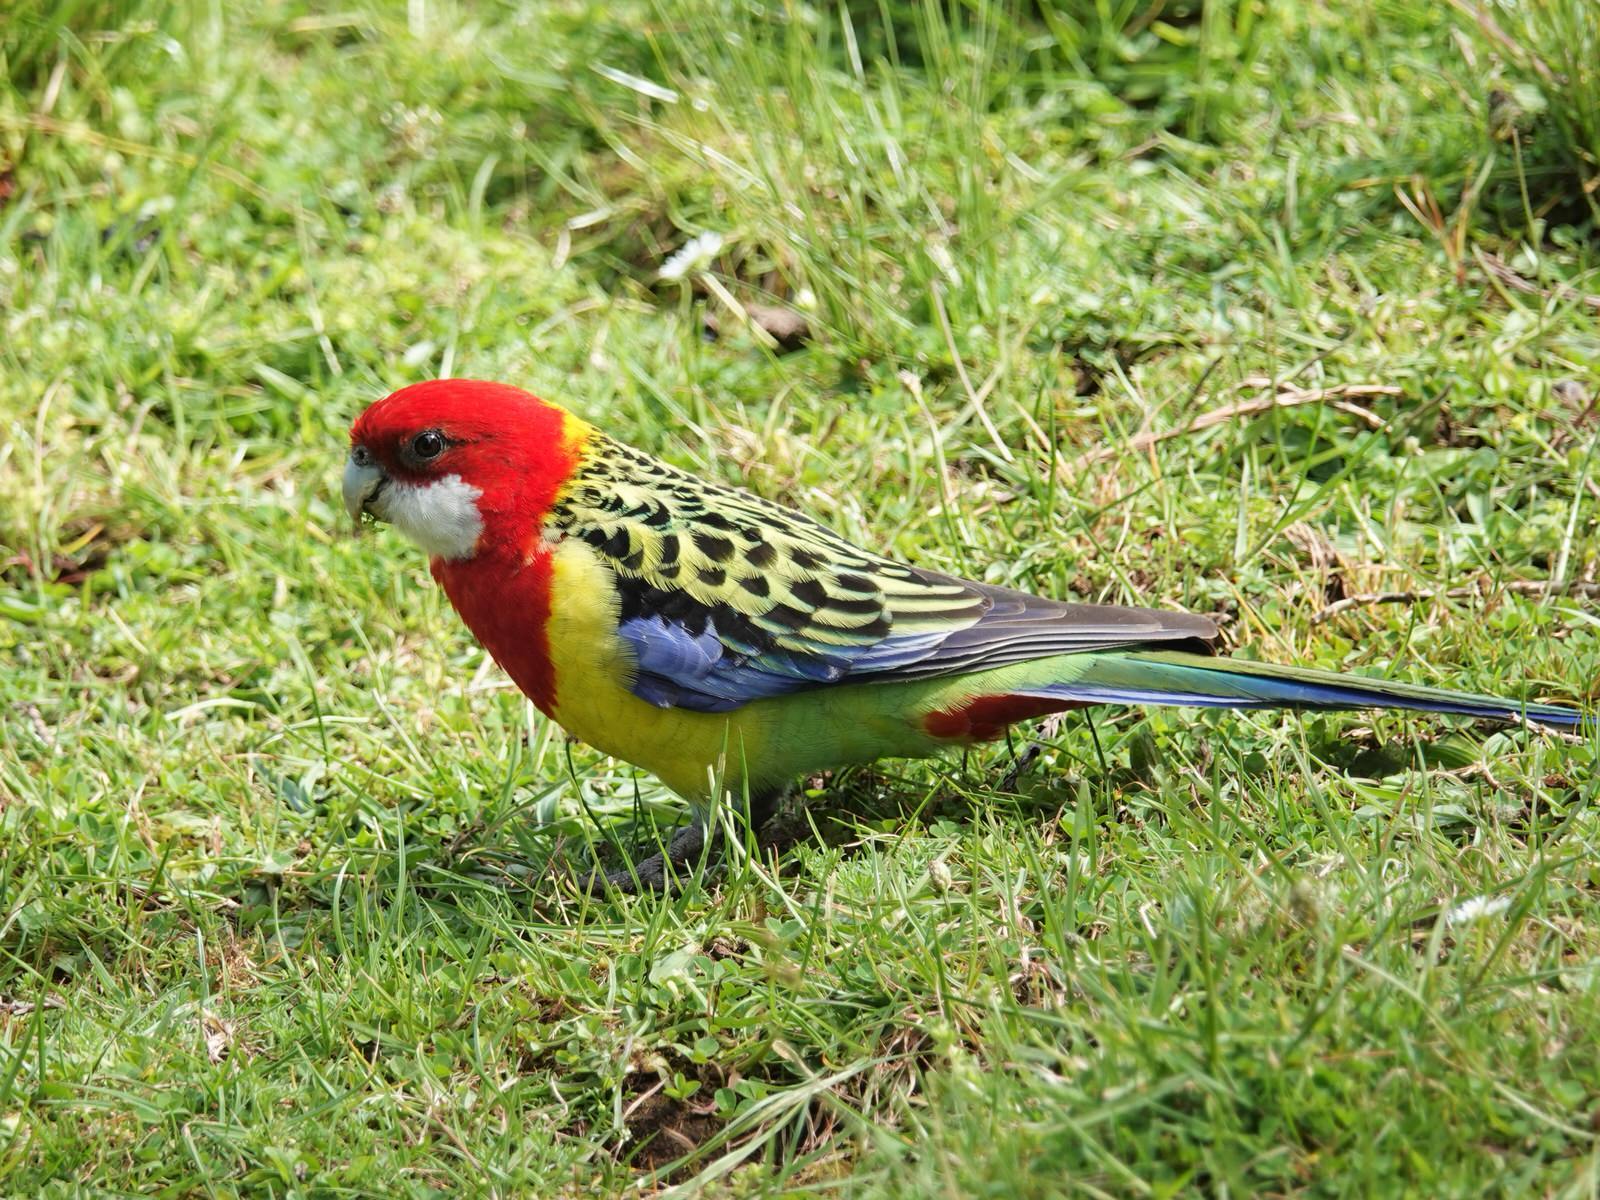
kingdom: Animalia
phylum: Chordata
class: Aves
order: Psittaciformes
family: Psittacidae
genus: Platycercus
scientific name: Platycercus eximius
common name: Eastern rosella
